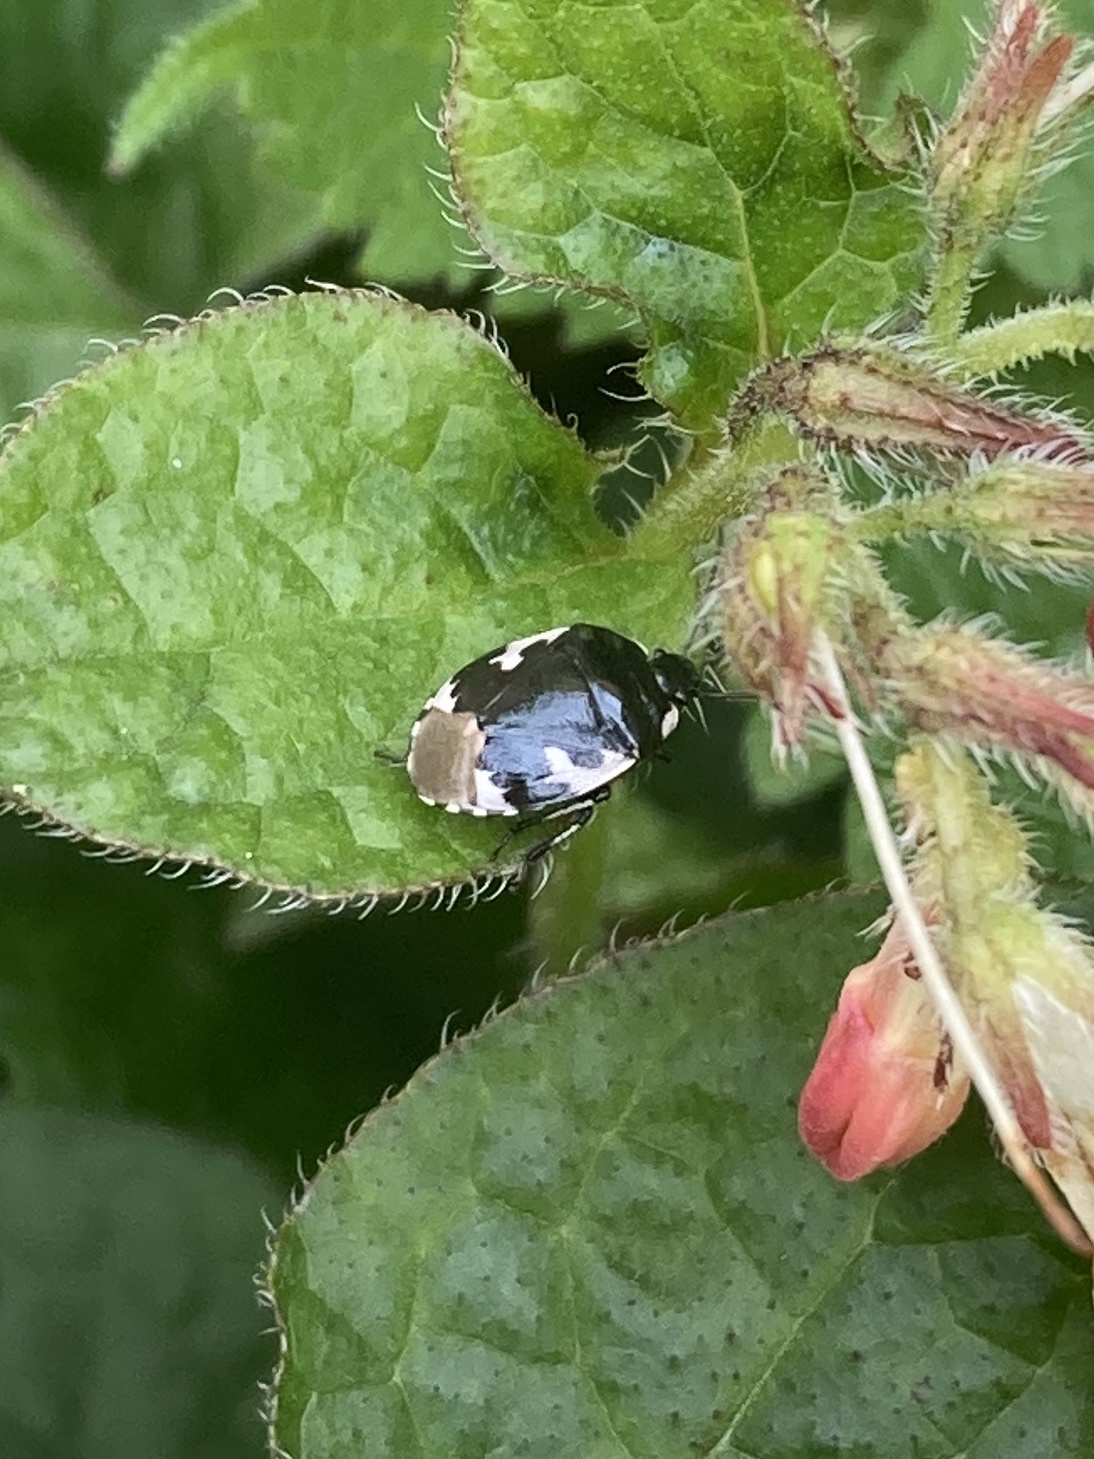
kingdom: Animalia
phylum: Arthropoda
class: Insecta
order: Hemiptera
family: Cydnidae
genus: Tritomegas
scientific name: Tritomegas bicolor
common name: Pied shieldbug
